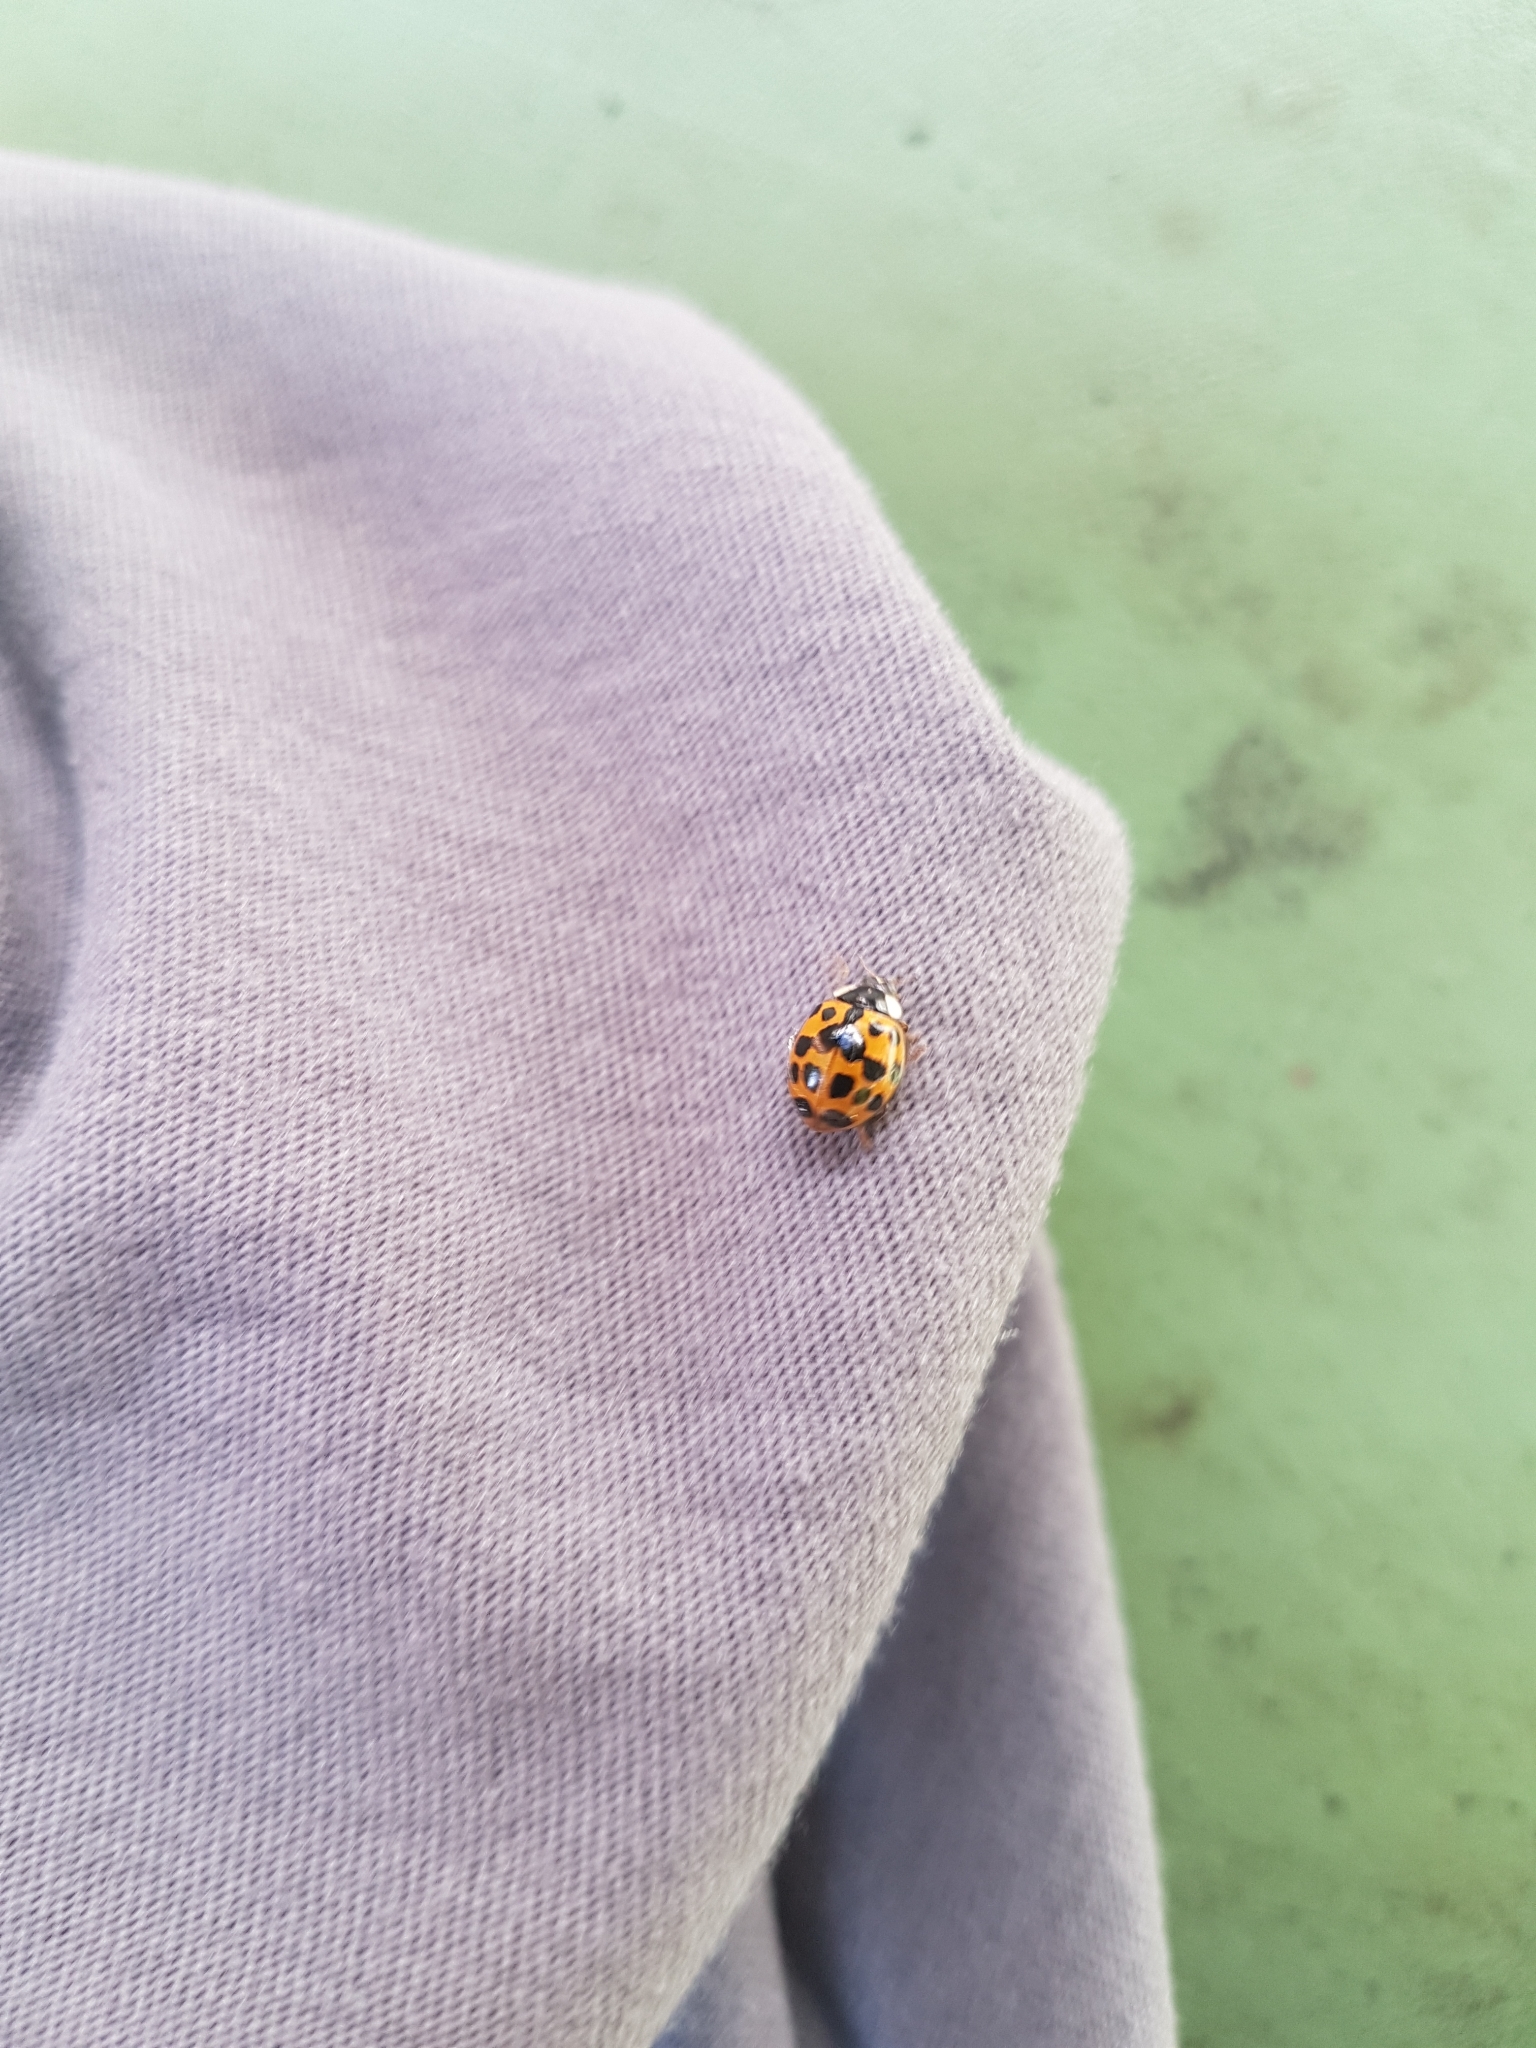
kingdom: Animalia
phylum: Arthropoda
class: Insecta
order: Coleoptera
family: Coccinellidae
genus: Harmonia
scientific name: Harmonia axyridis
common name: Harlequin ladybird
